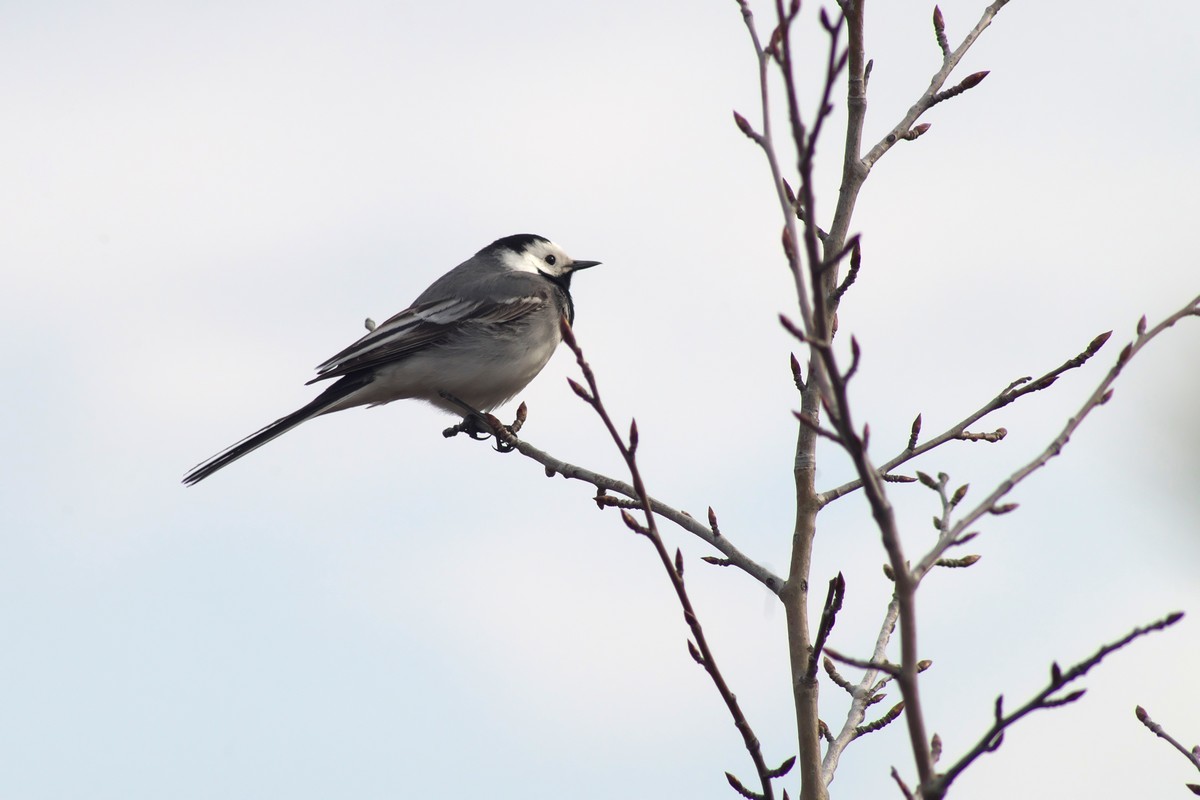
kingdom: Animalia
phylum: Chordata
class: Aves
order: Passeriformes
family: Motacillidae
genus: Motacilla
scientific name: Motacilla alba
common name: White wagtail
